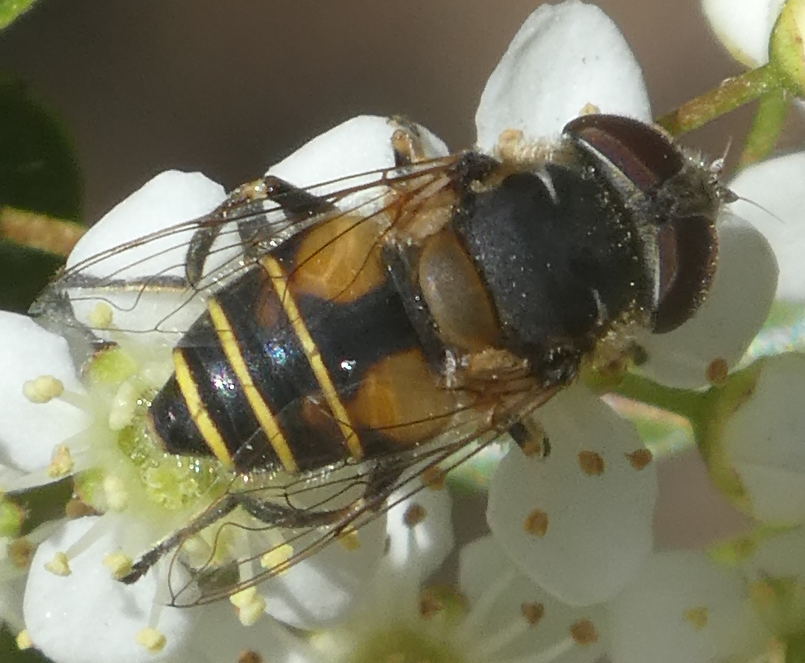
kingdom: Animalia
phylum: Arthropoda
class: Insecta
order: Diptera
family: Syrphidae
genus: Palpada
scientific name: Palpada alhambra
